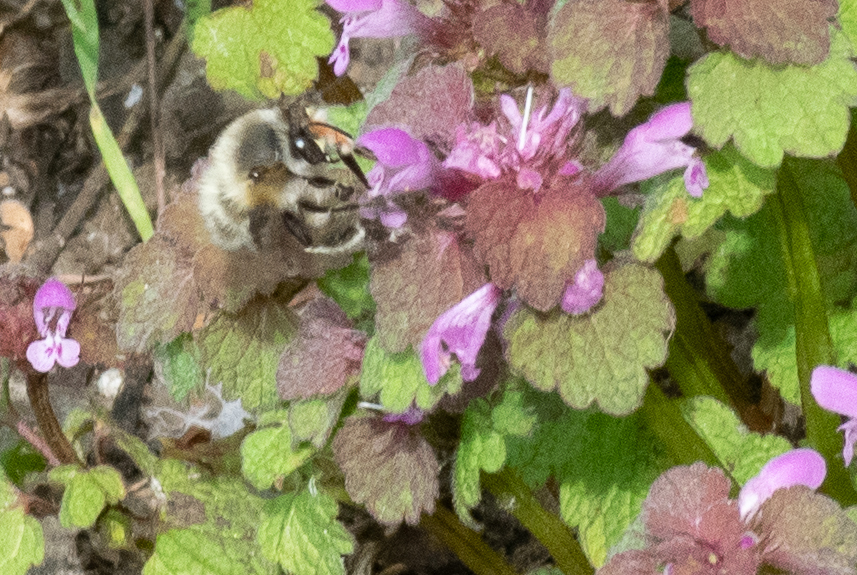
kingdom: Animalia
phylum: Arthropoda
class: Insecta
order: Hymenoptera
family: Apidae
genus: Anthophora
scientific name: Anthophora plumipes
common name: Hairy-footed flower bee
